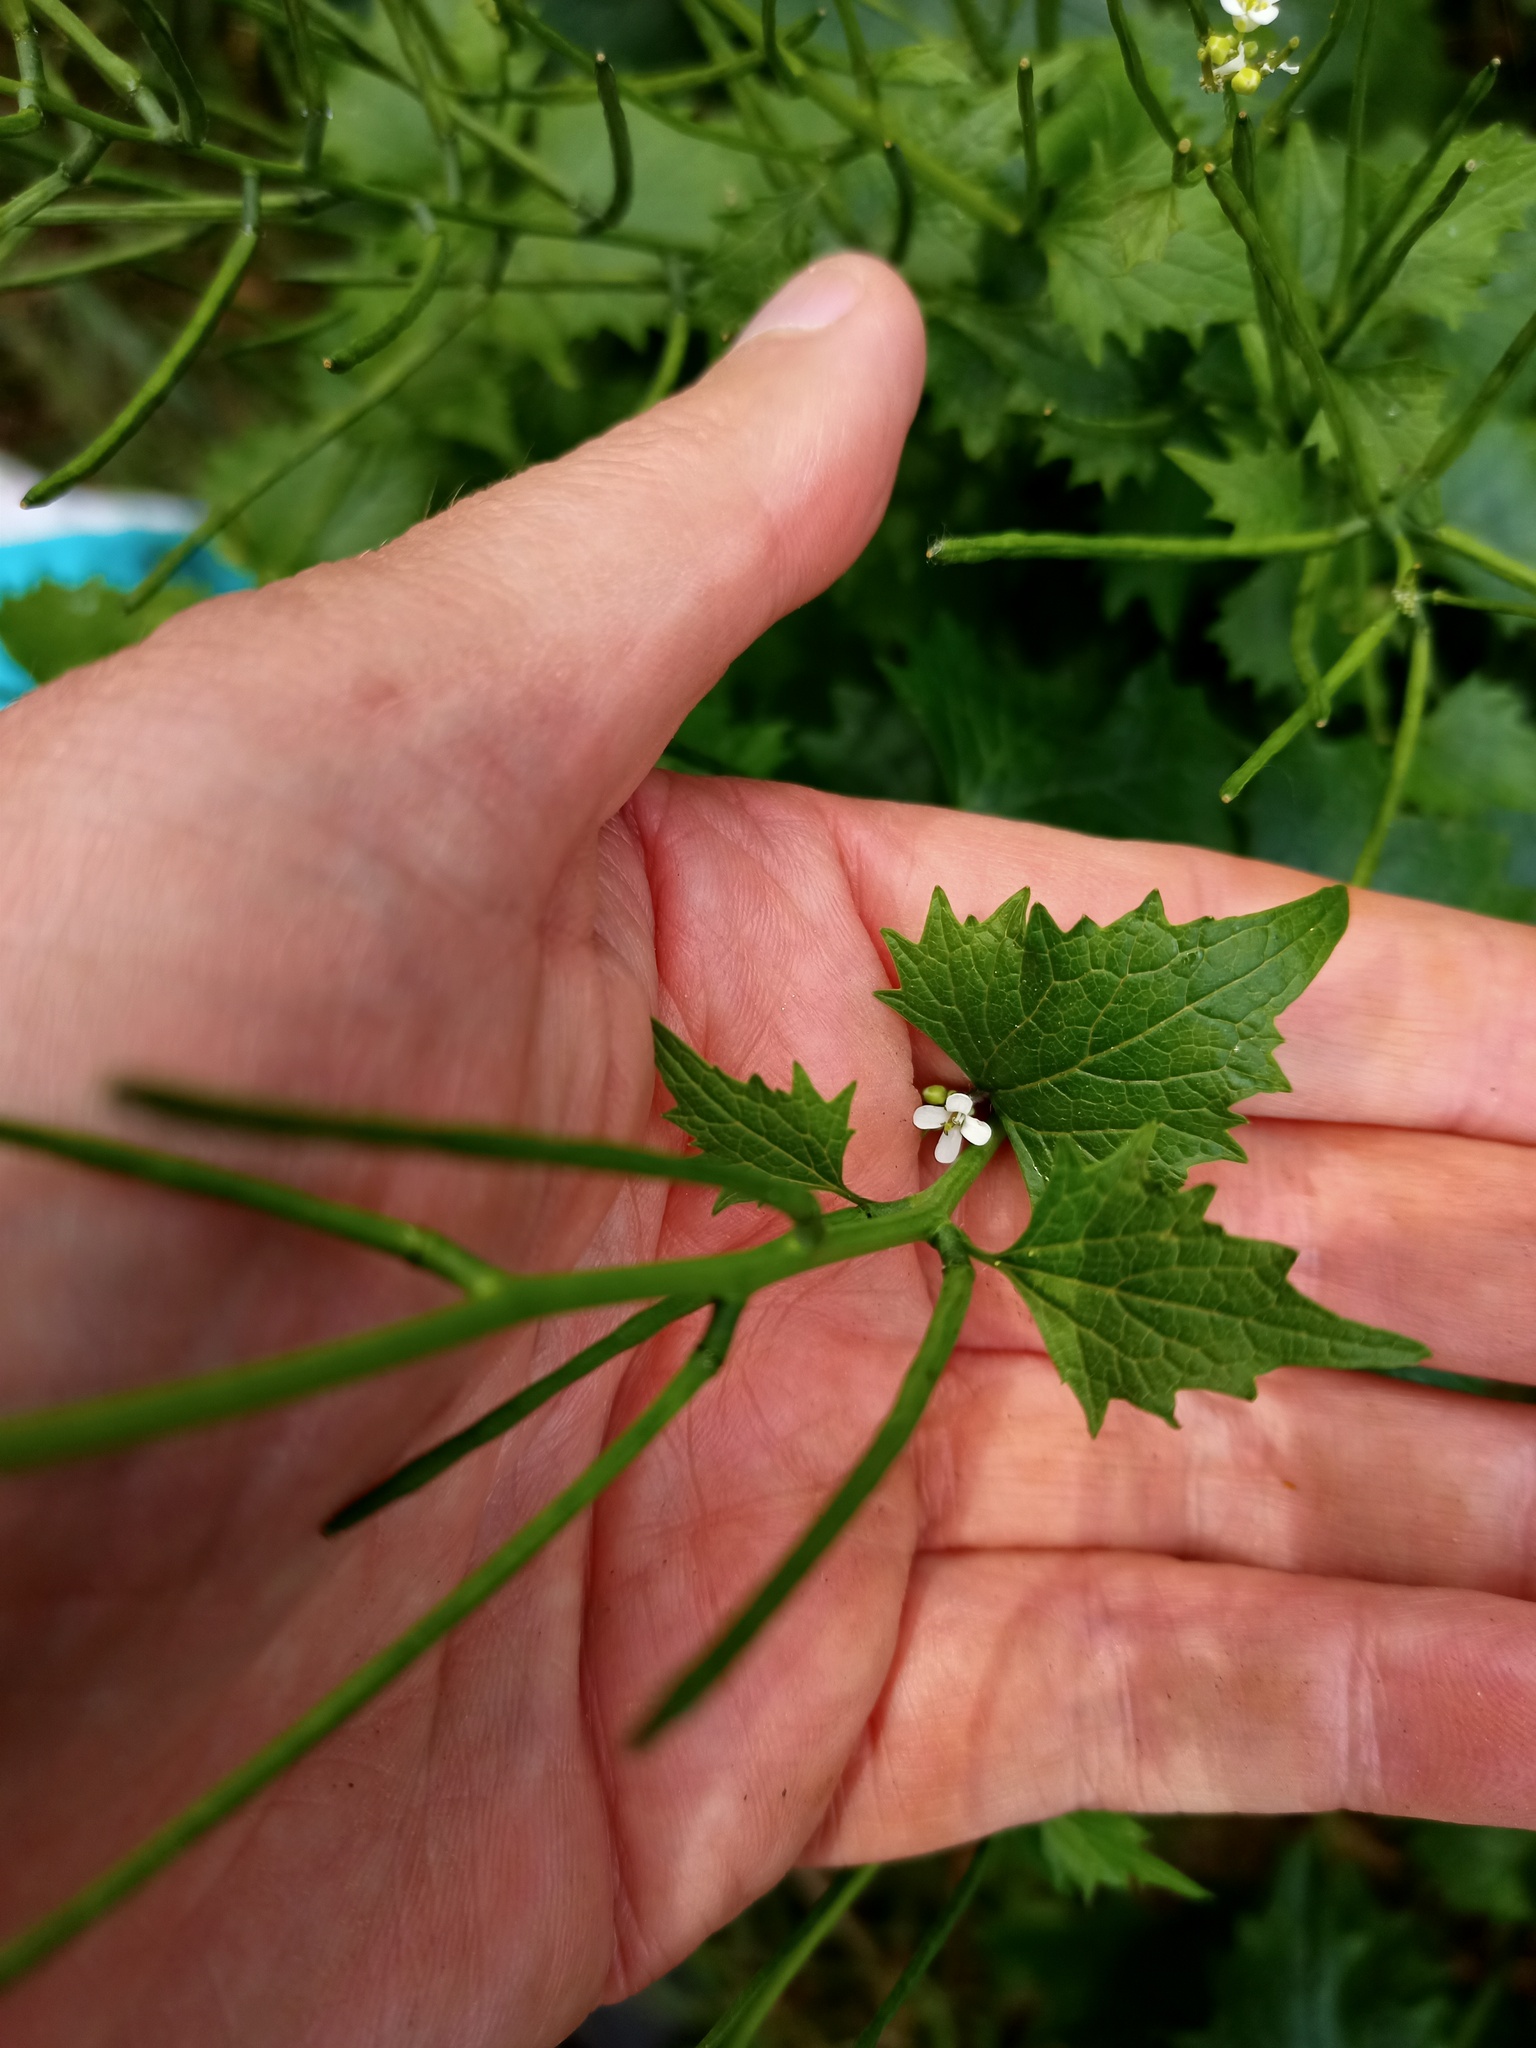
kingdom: Plantae
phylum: Tracheophyta
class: Magnoliopsida
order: Brassicales
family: Brassicaceae
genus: Alliaria
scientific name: Alliaria petiolata
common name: Garlic mustard
